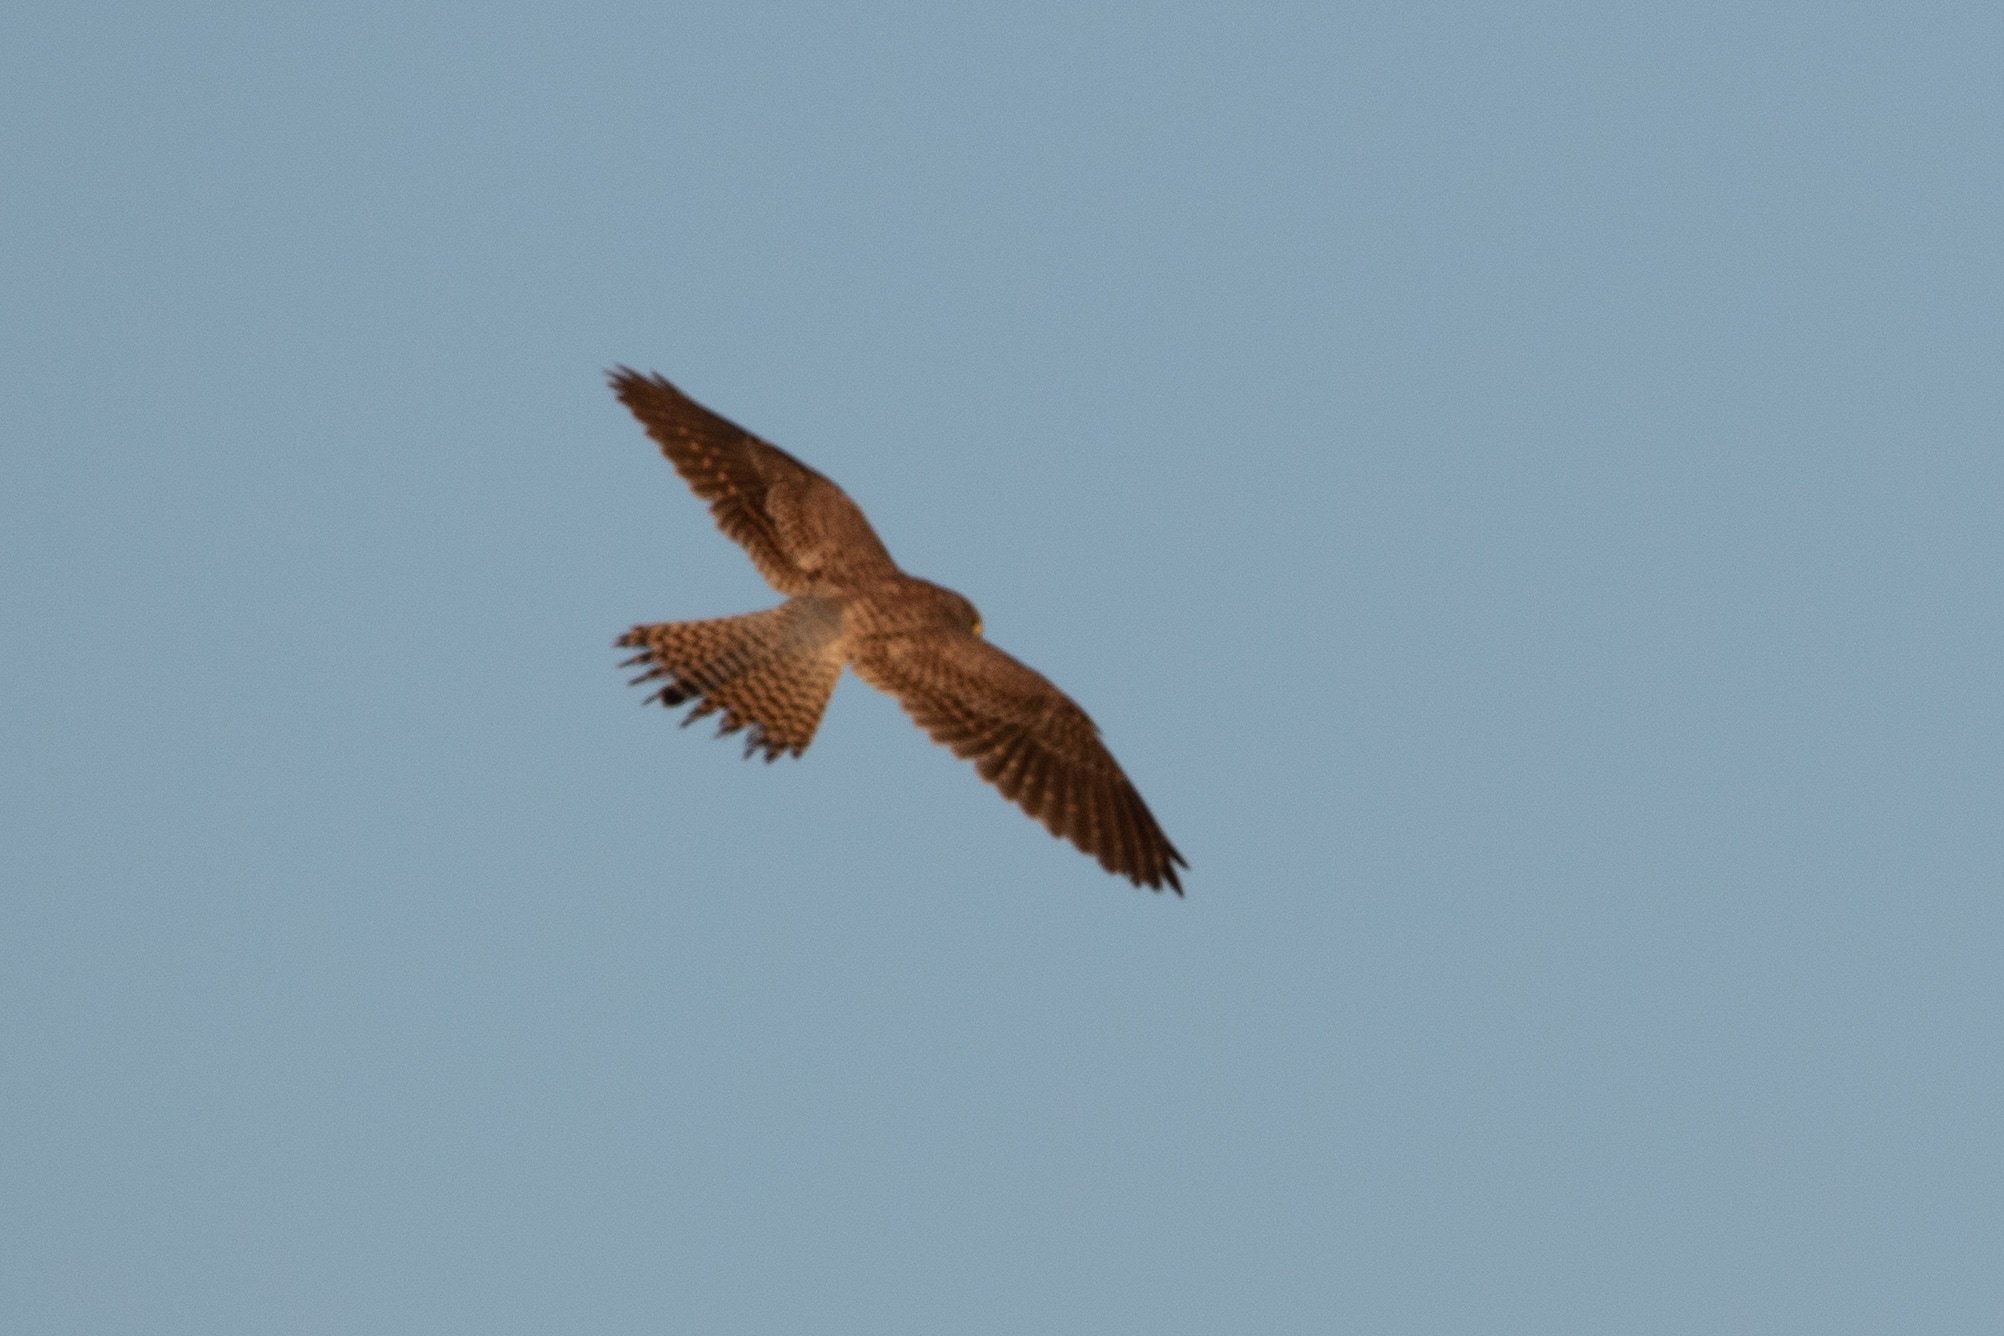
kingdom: Animalia
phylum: Chordata
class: Aves
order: Falconiformes
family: Falconidae
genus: Falco
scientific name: Falco tinnunculus
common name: Common kestrel
